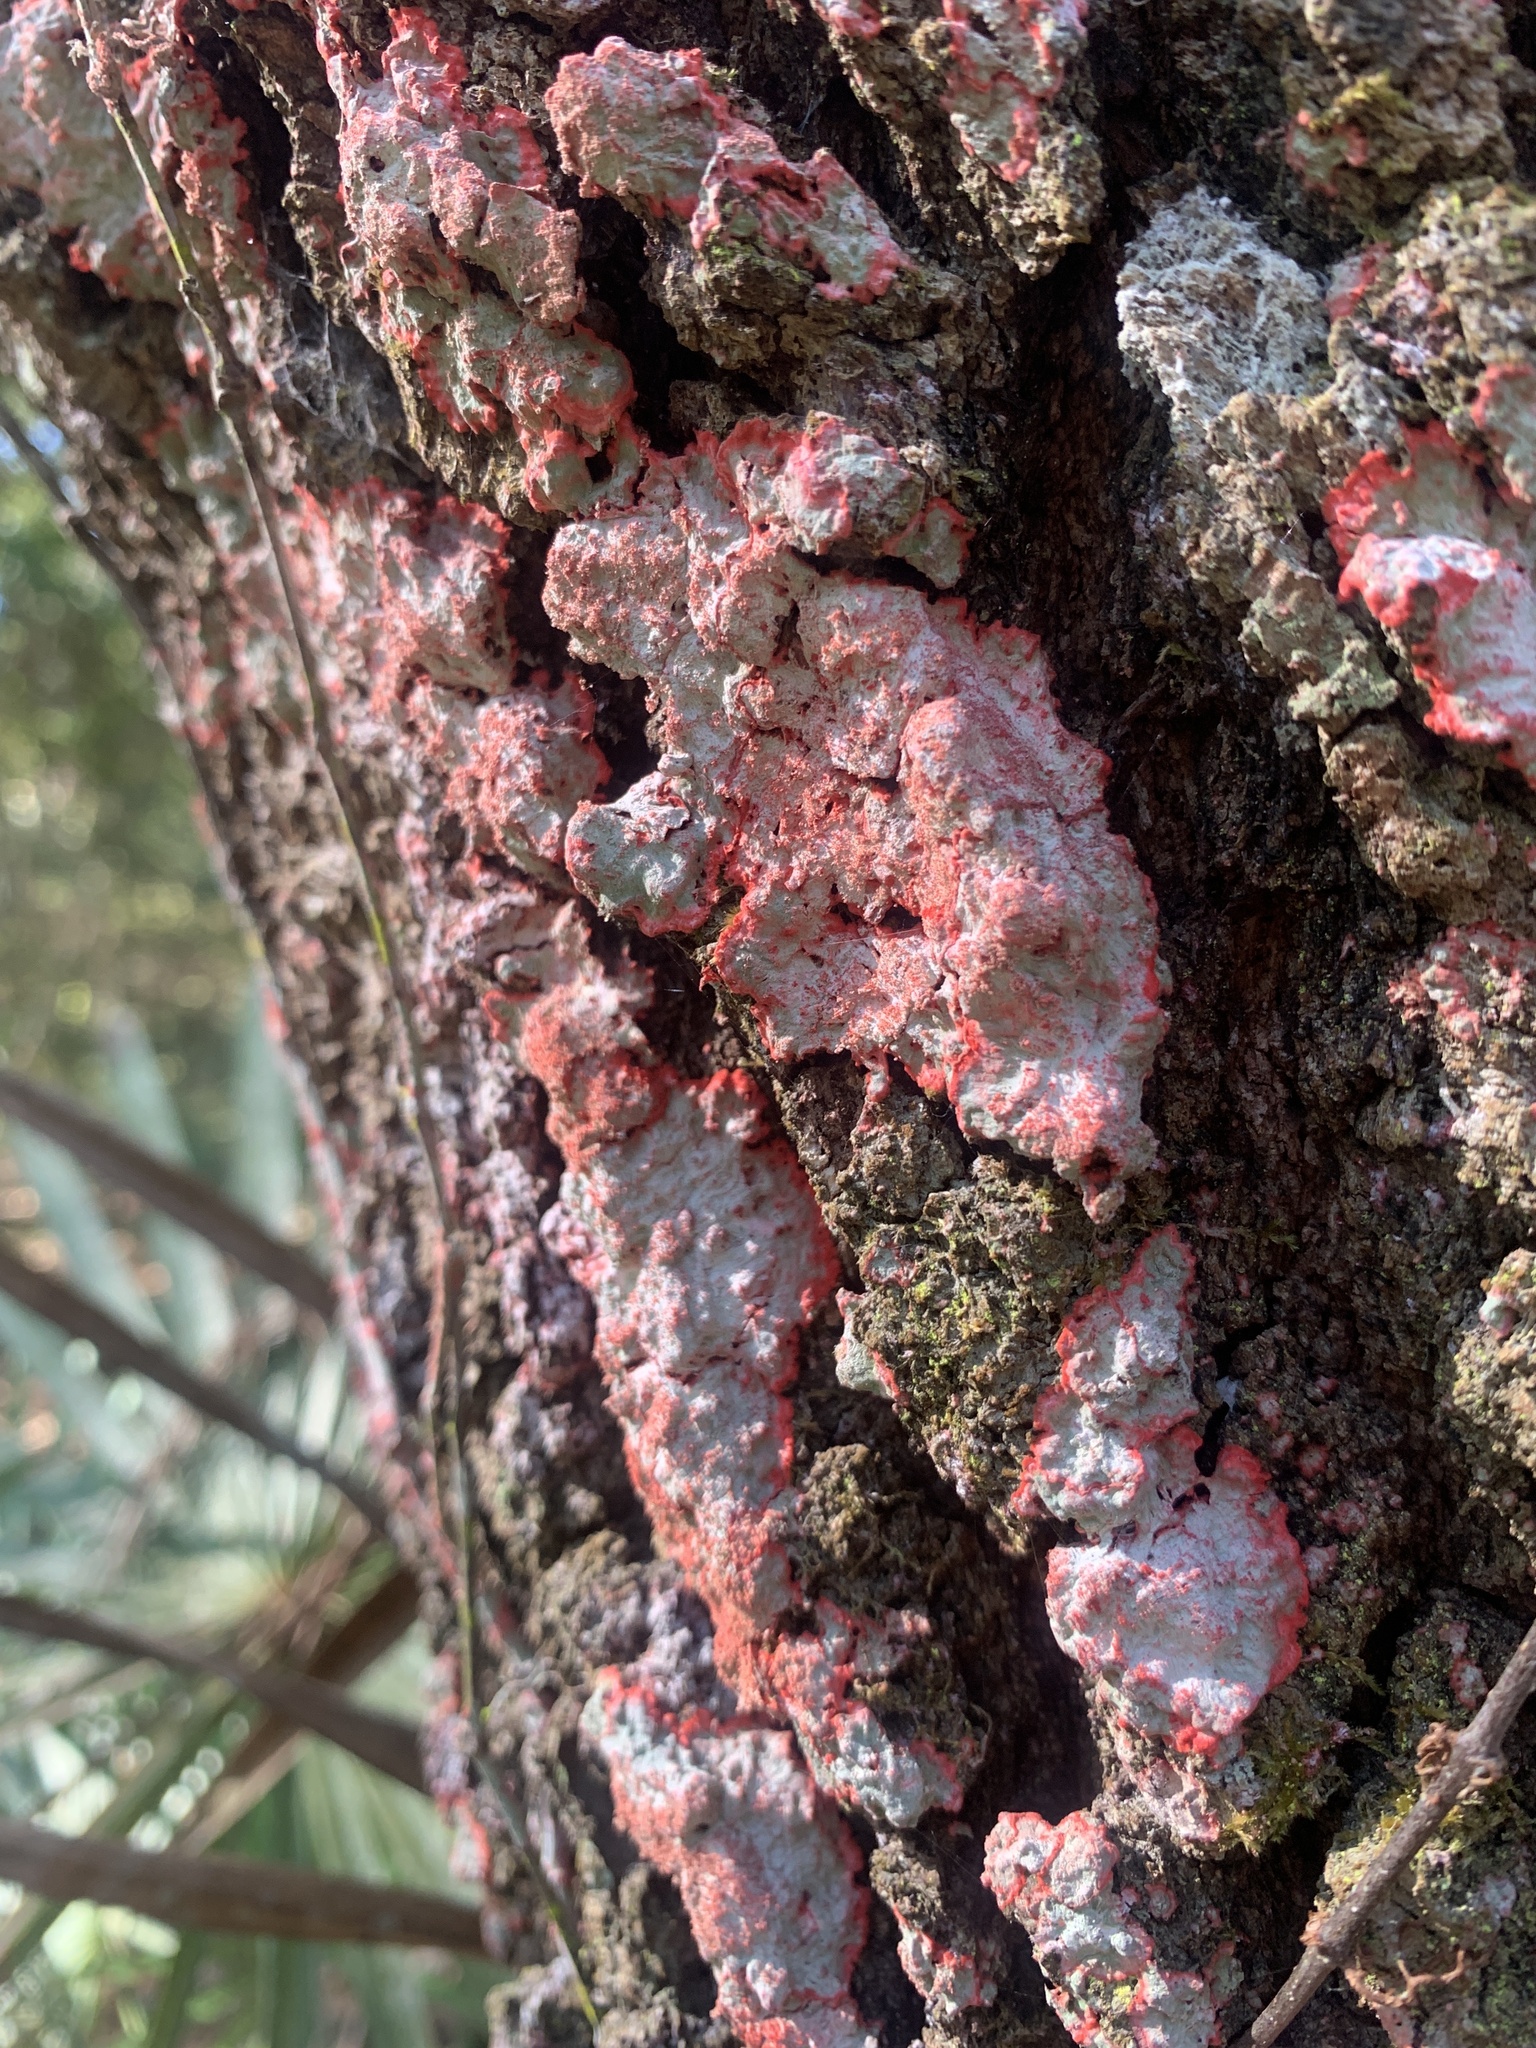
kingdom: Fungi
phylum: Ascomycota
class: Arthoniomycetes
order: Arthoniales
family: Arthoniaceae
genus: Herpothallon
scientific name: Herpothallon rubrocinctum
